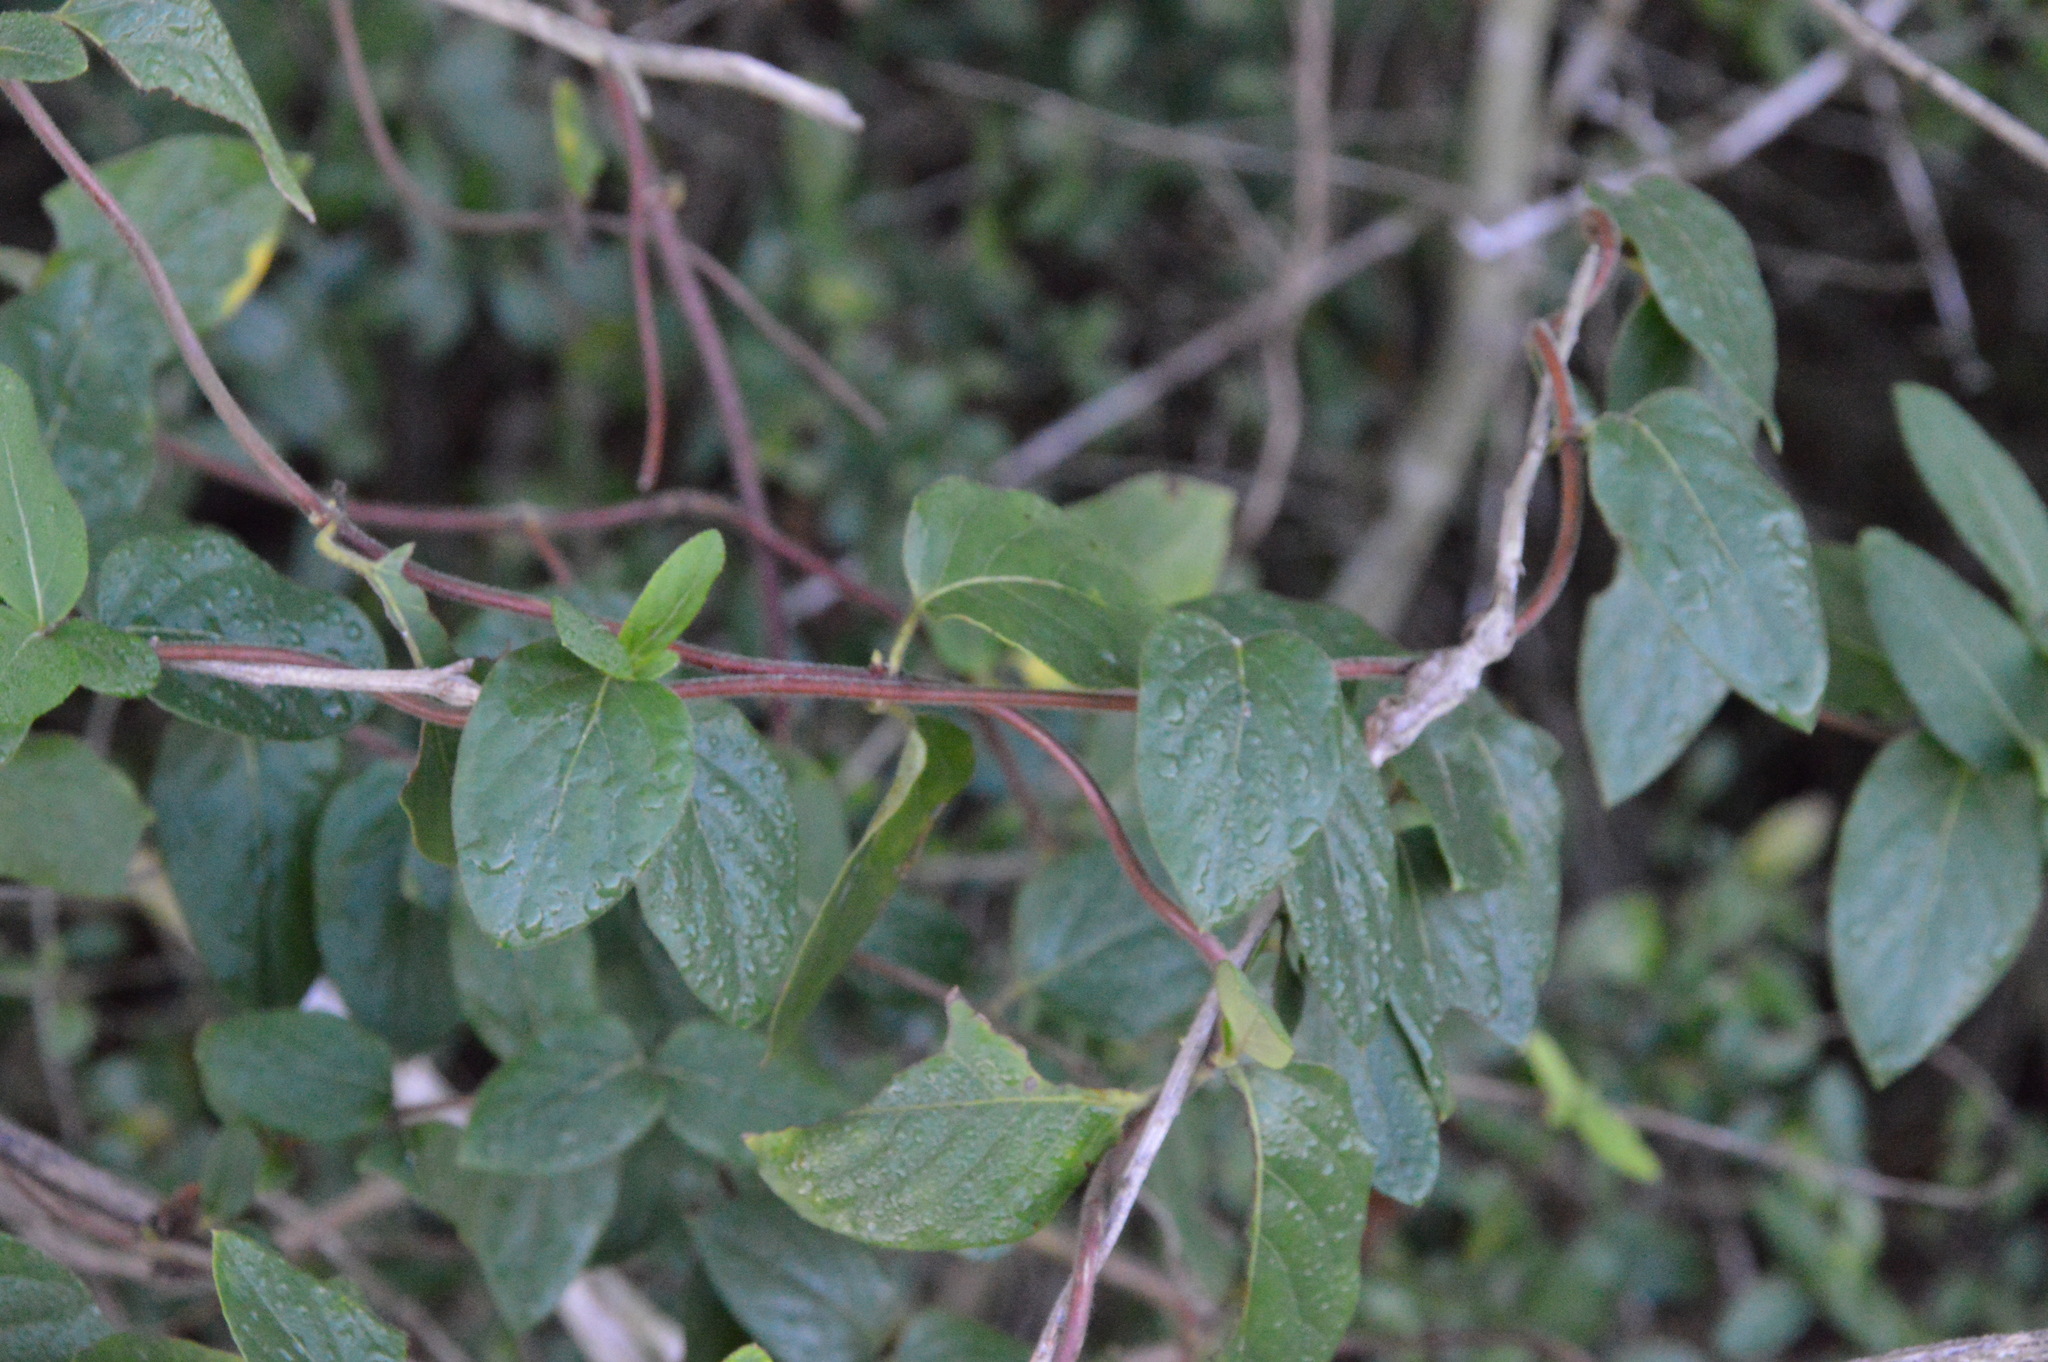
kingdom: Plantae
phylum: Tracheophyta
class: Magnoliopsida
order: Dipsacales
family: Caprifoliaceae
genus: Lonicera
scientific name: Lonicera japonica
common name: Japanese honeysuckle
